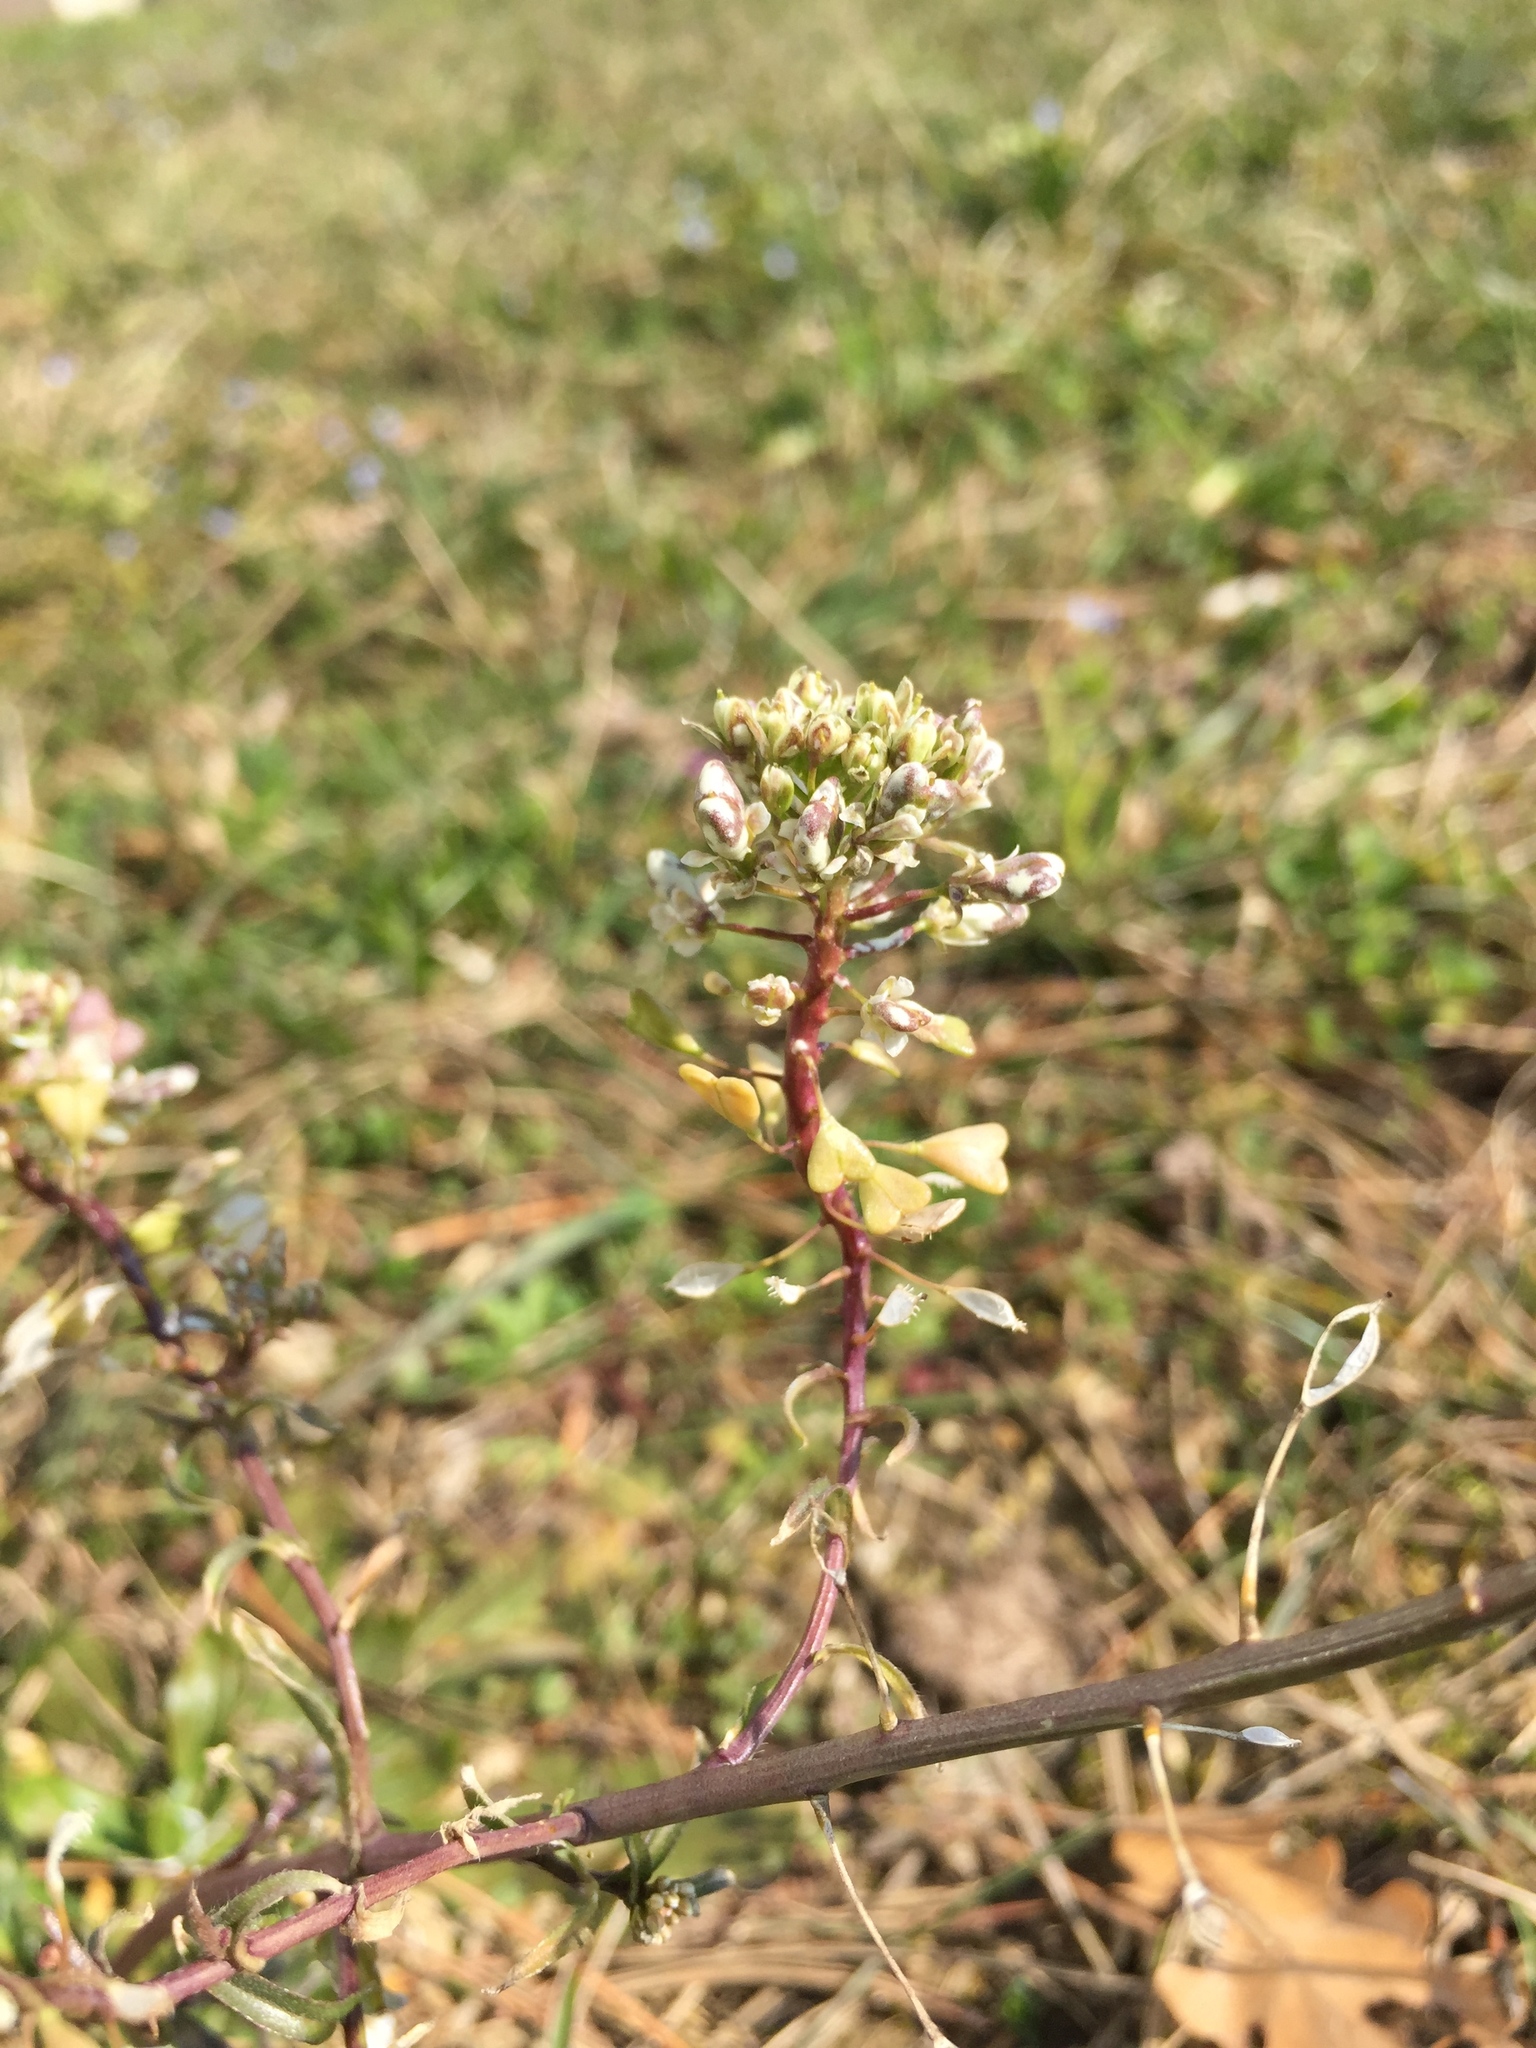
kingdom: Plantae
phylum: Tracheophyta
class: Magnoliopsida
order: Brassicales
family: Brassicaceae
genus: Capsella
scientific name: Capsella bursa-pastoris
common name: Shepherd's purse
